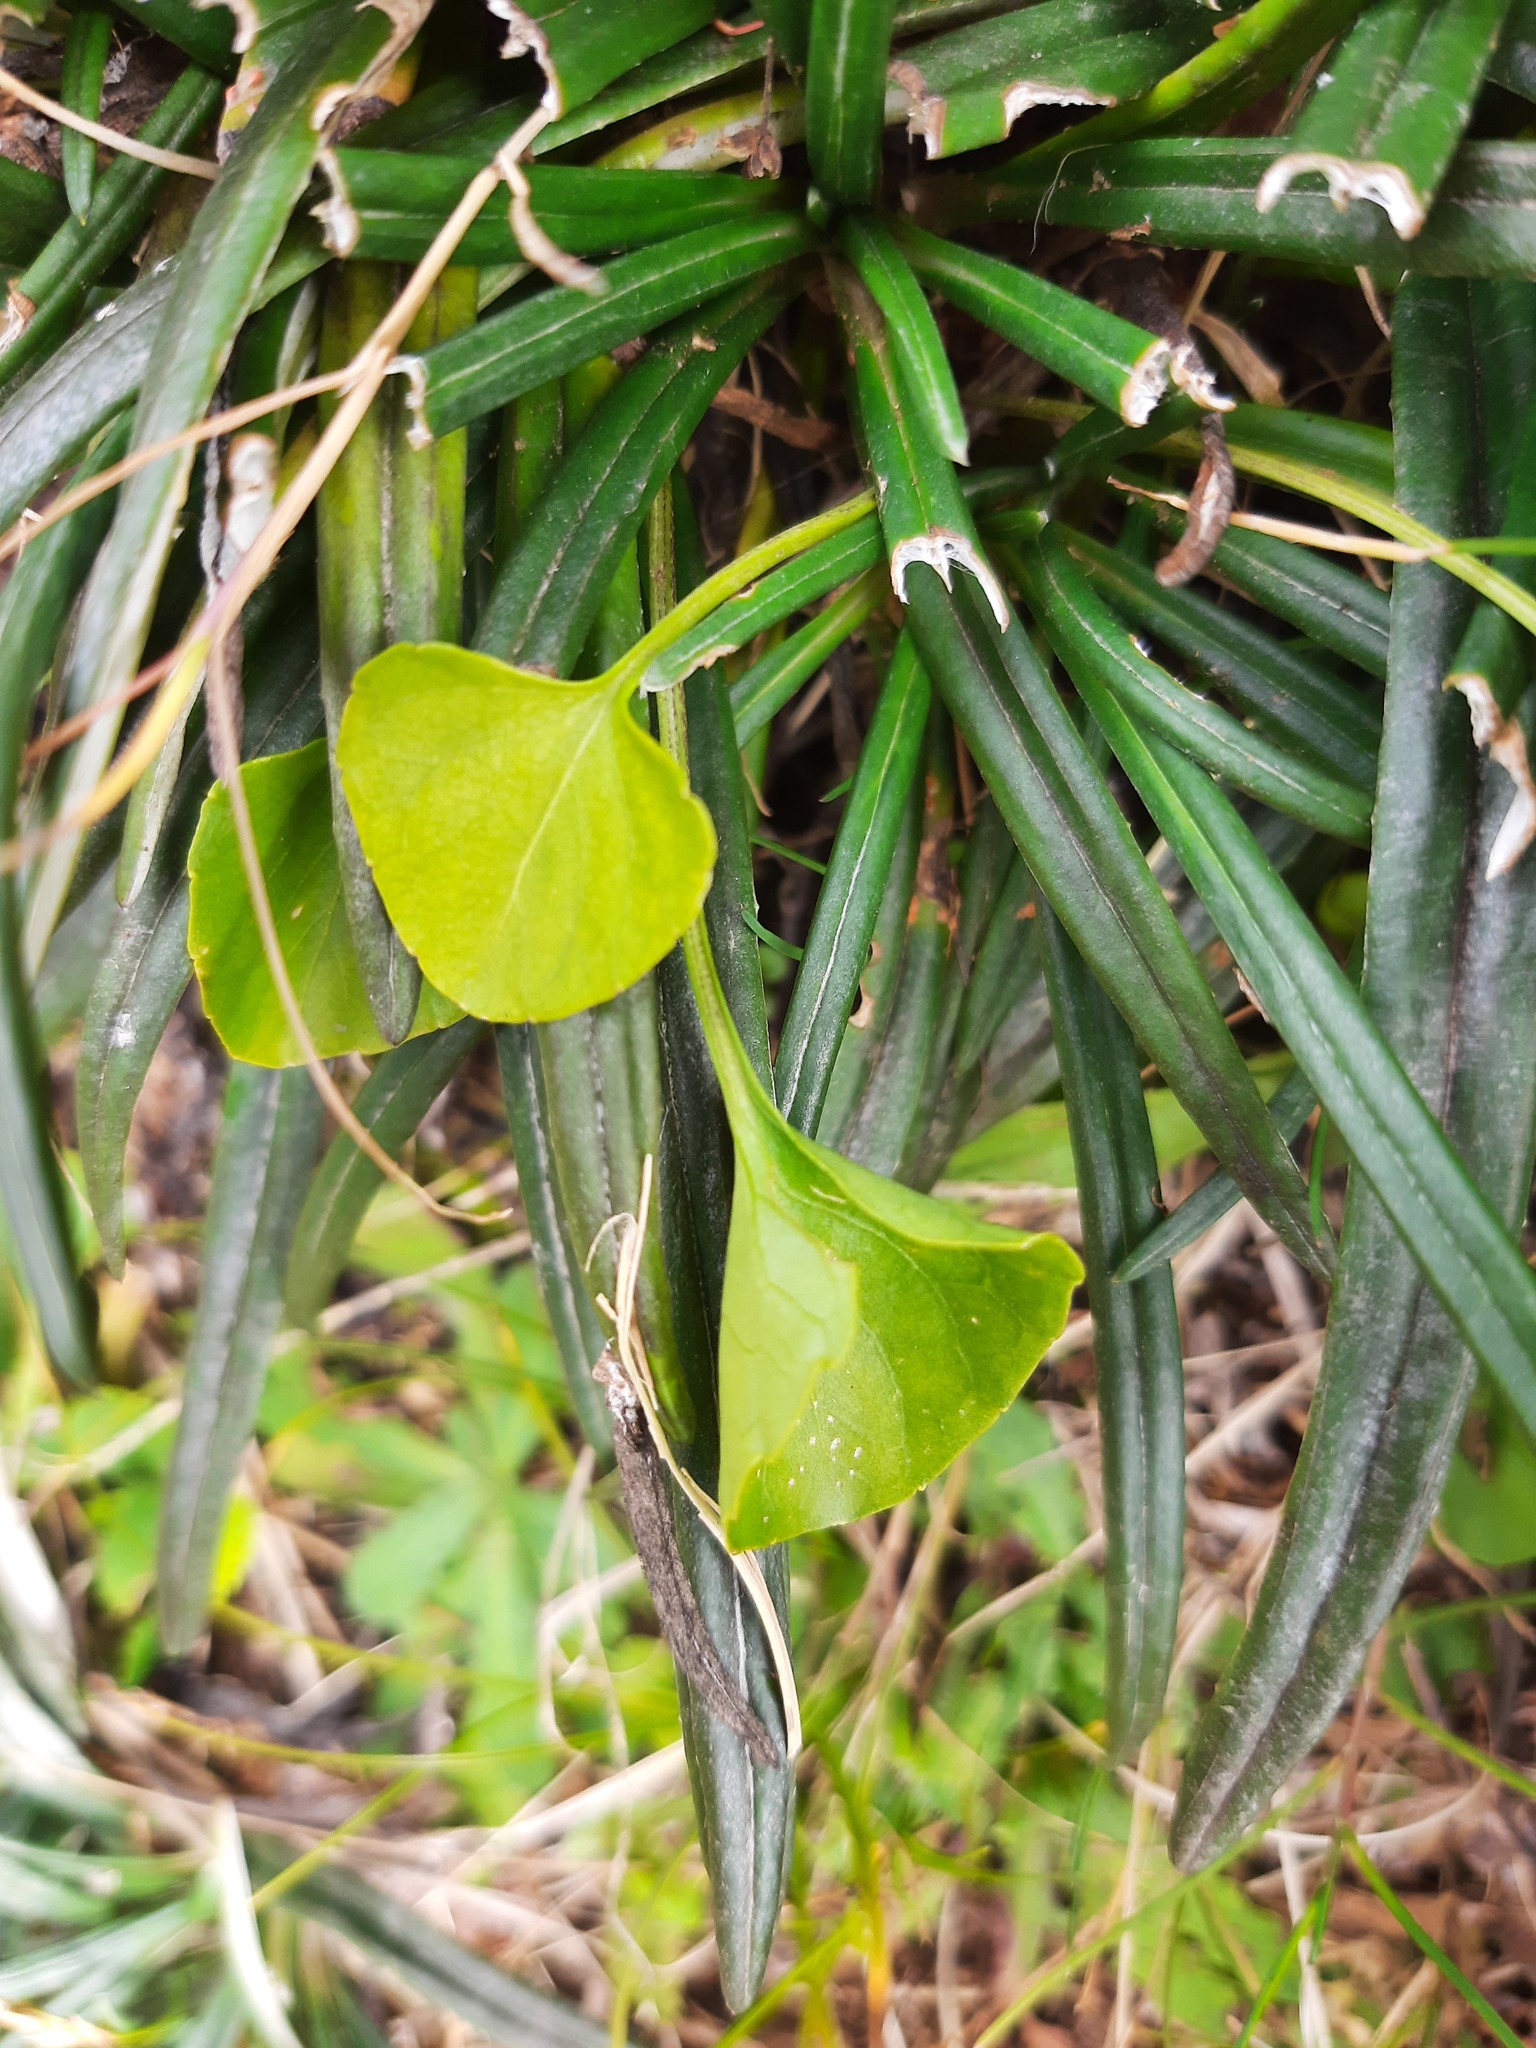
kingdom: Plantae
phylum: Tracheophyta
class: Magnoliopsida
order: Malpighiales
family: Violaceae
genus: Viola
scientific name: Viola cunninghamii
